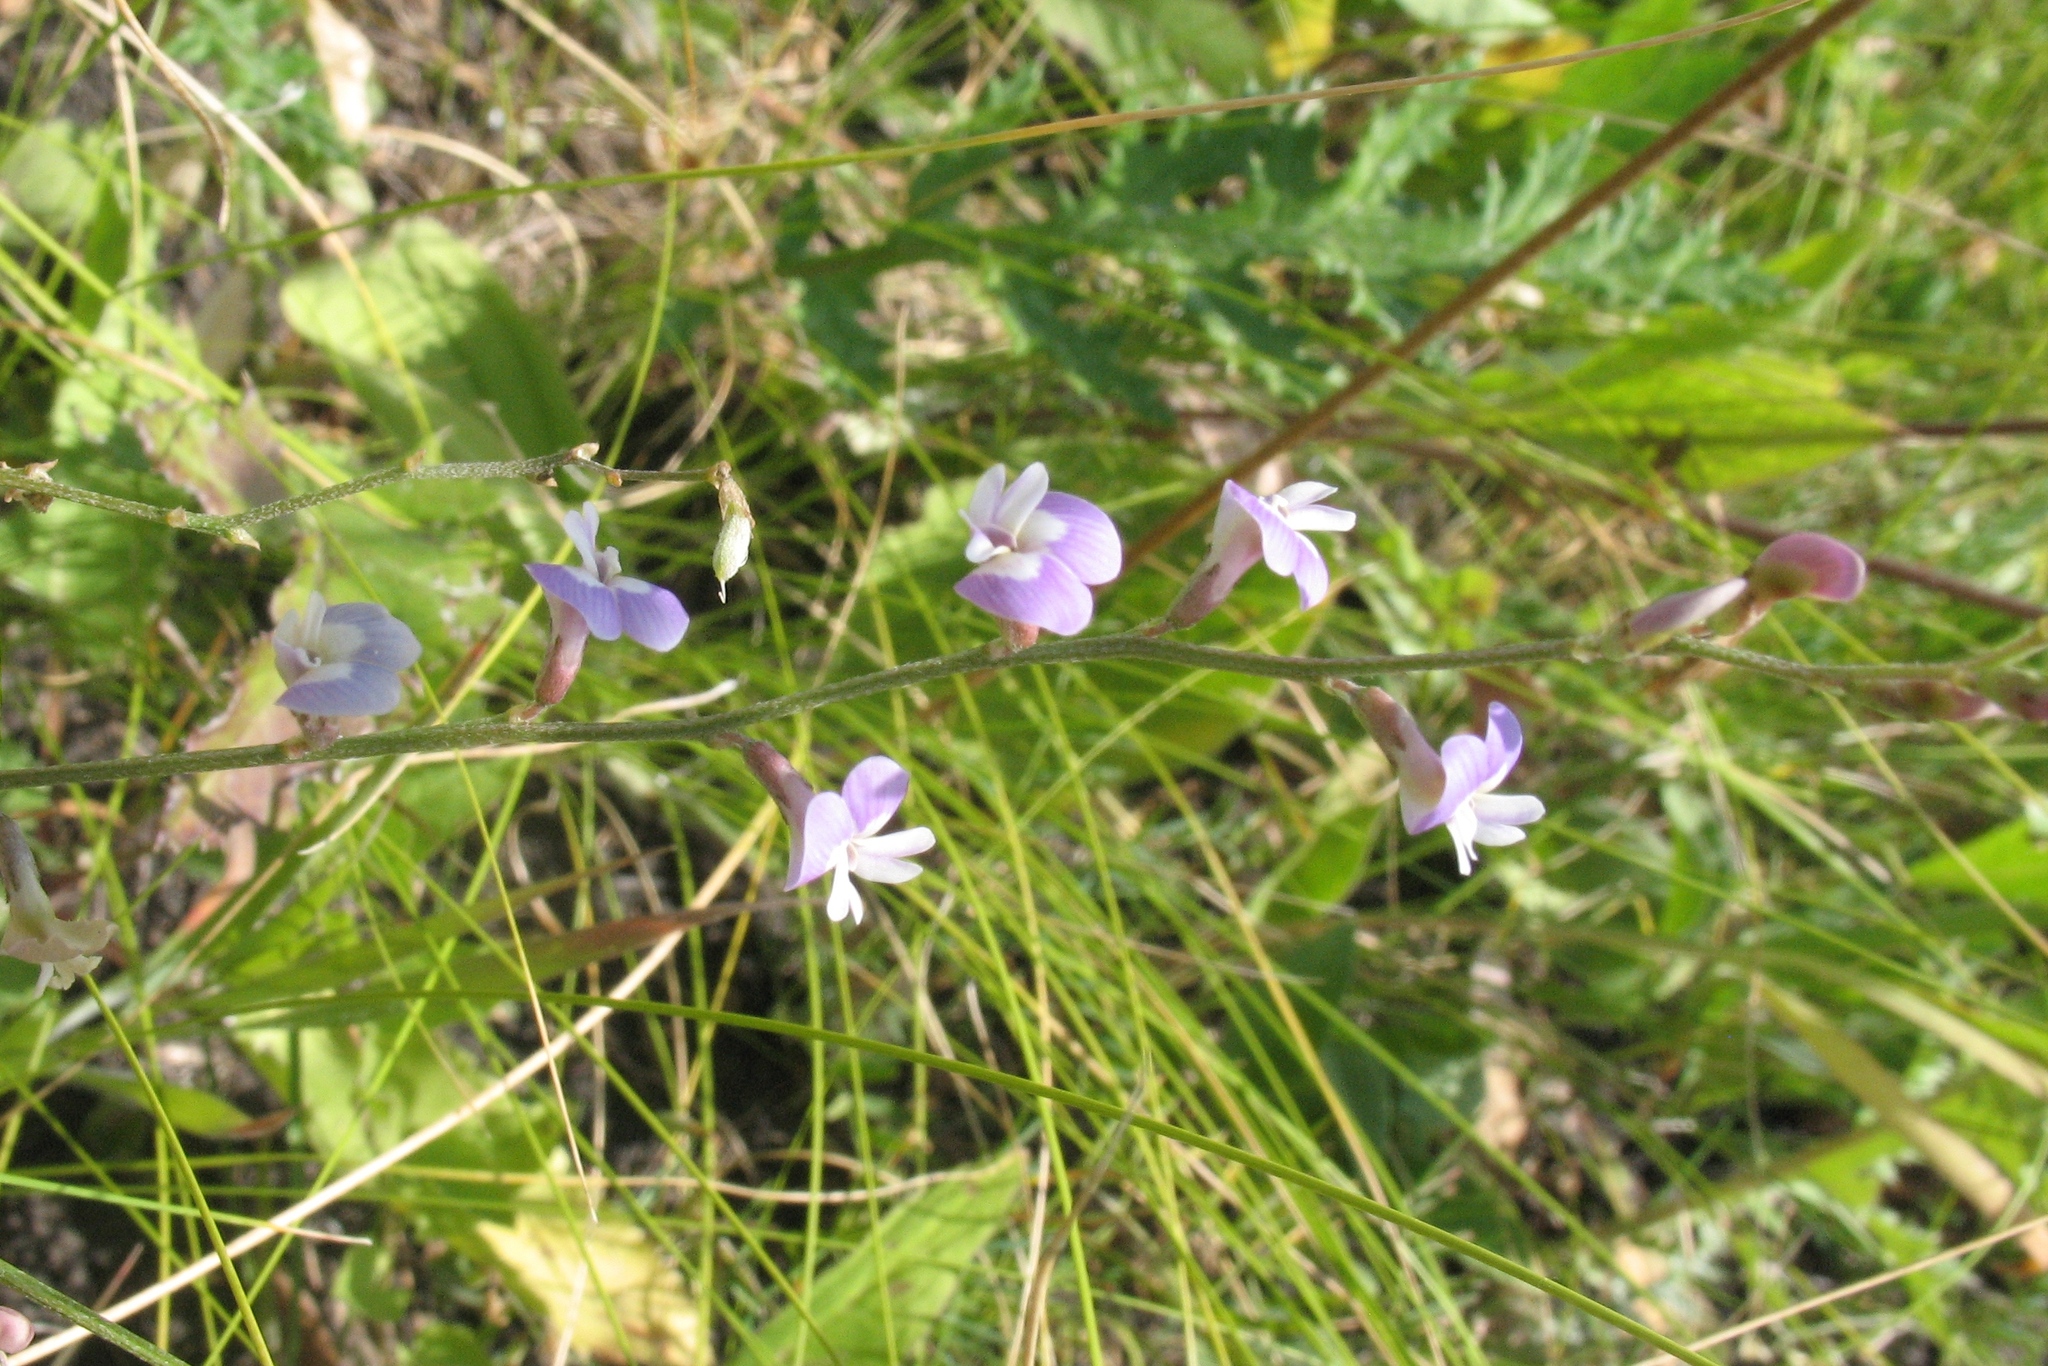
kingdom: Plantae
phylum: Tracheophyta
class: Magnoliopsida
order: Fabales
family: Fabaceae
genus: Astragalus
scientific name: Astragalus austriacus
